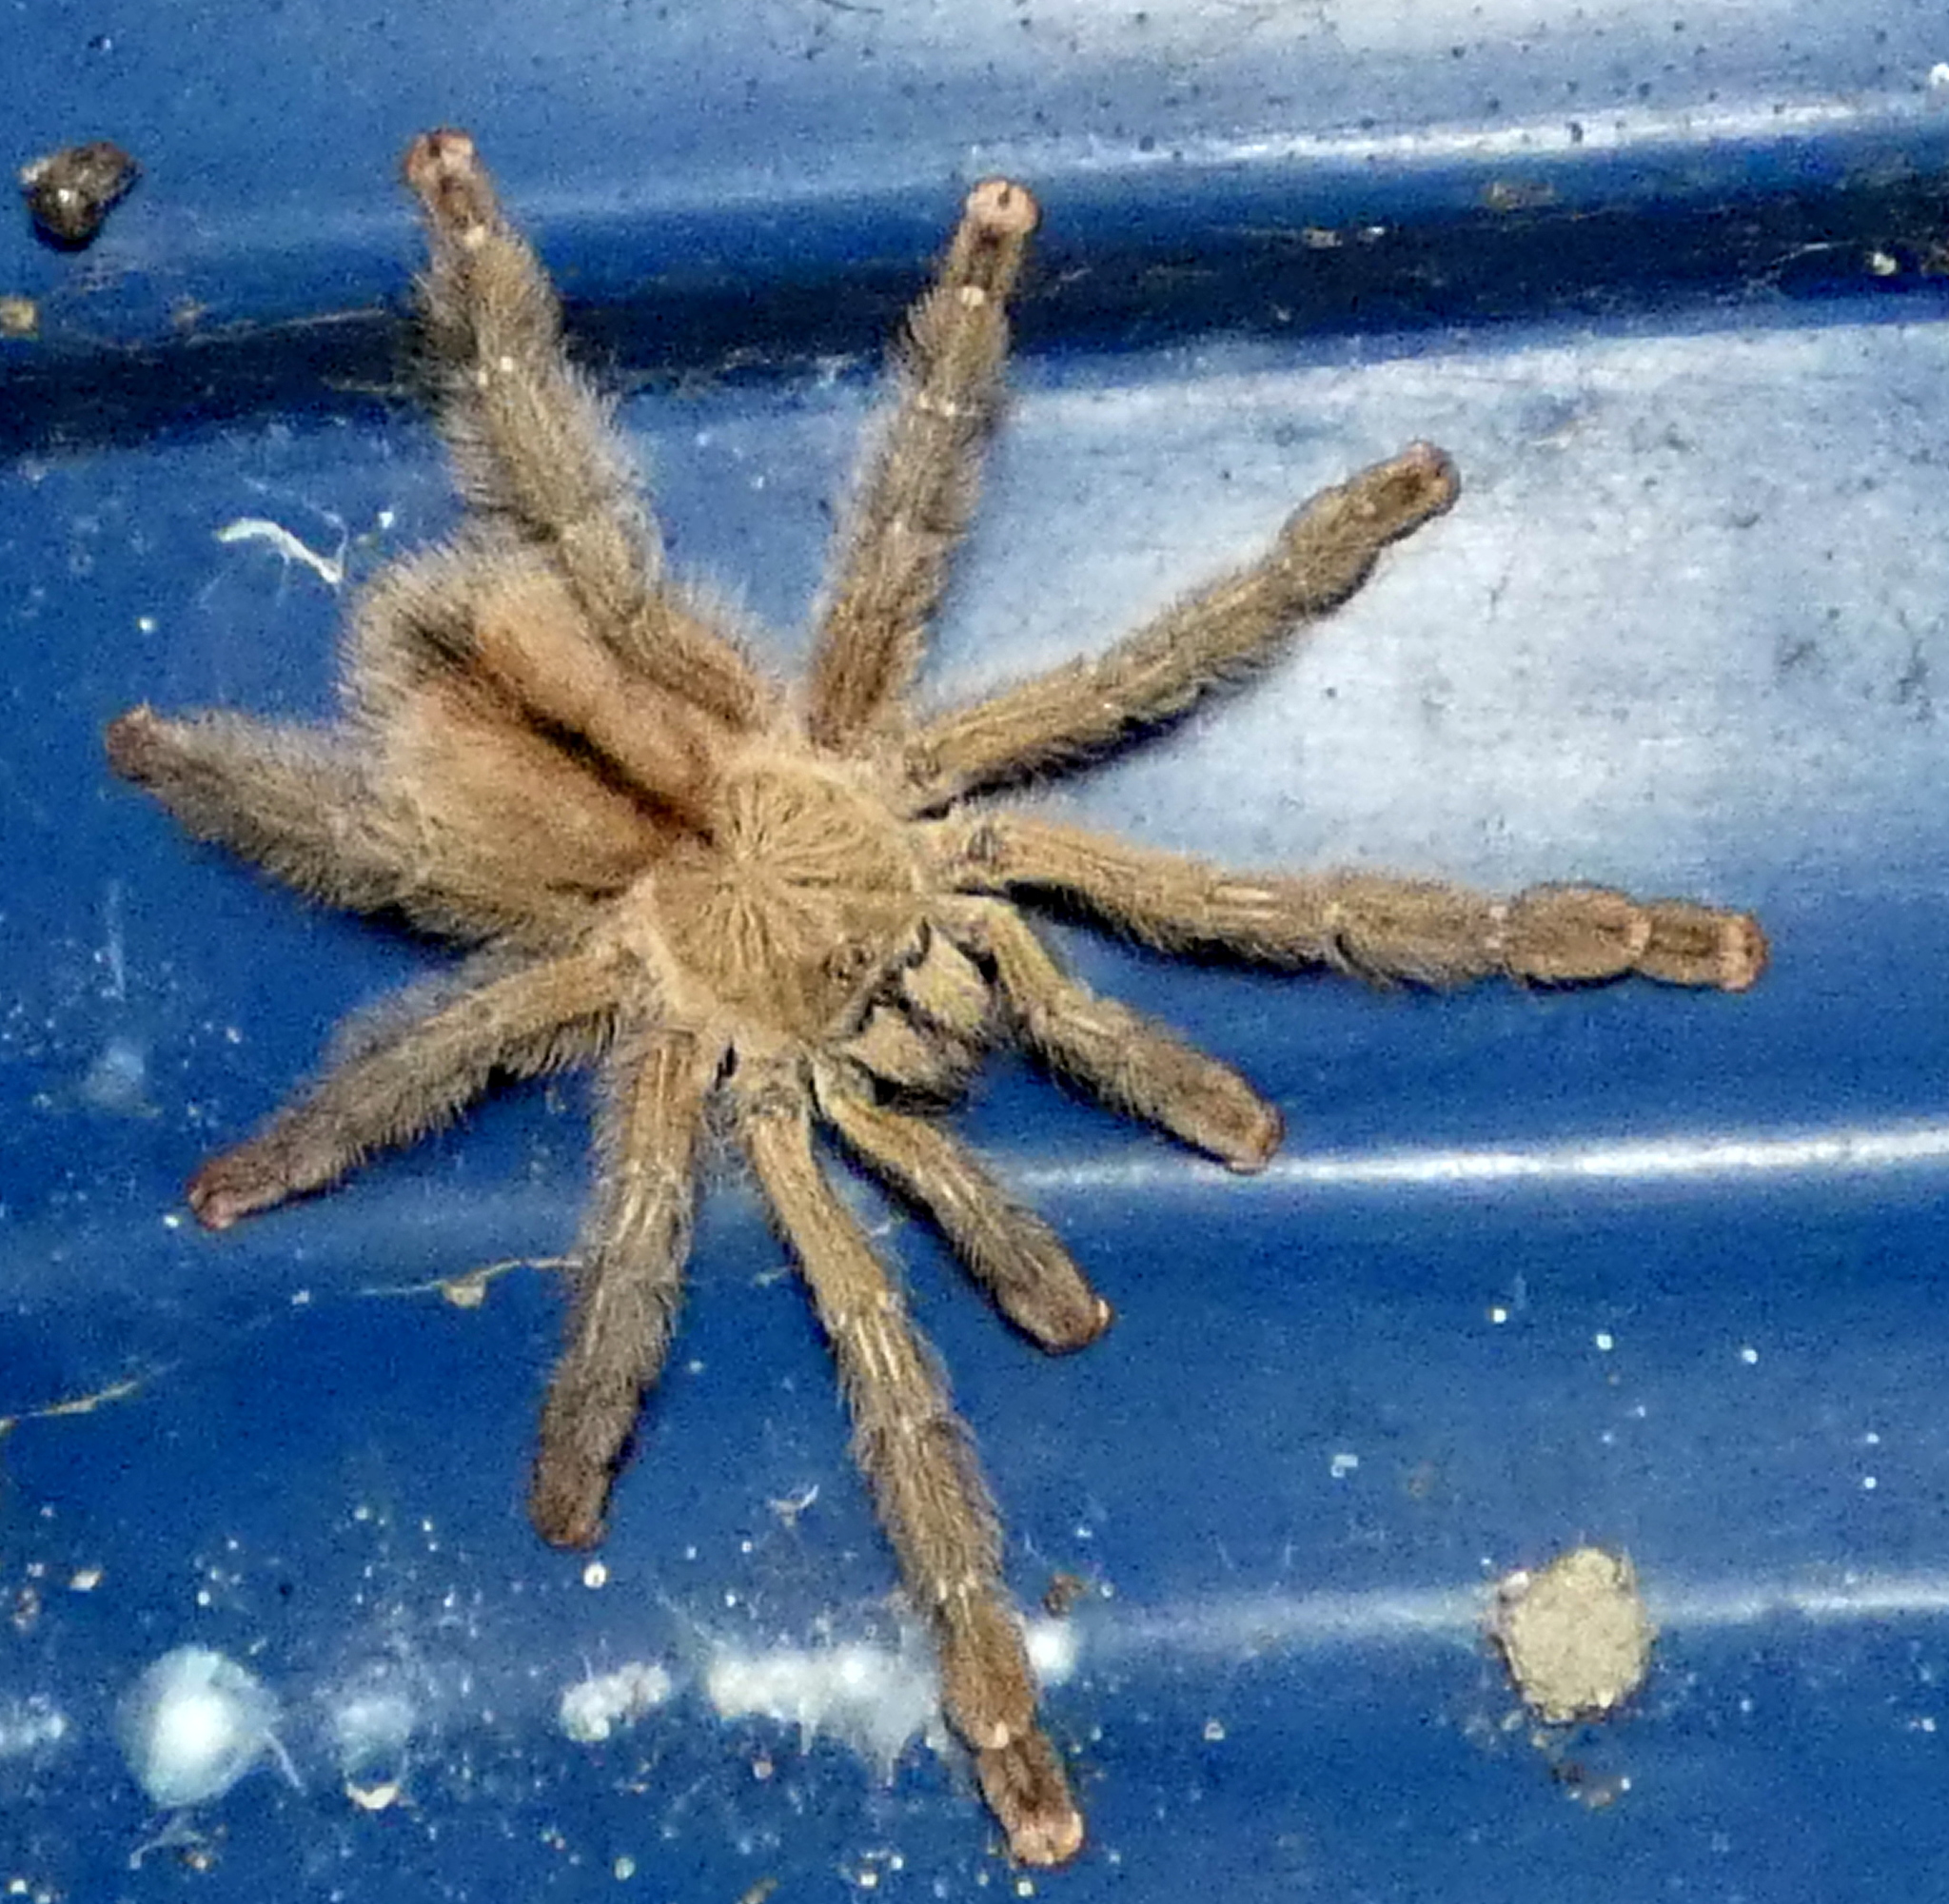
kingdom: Animalia
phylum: Arthropoda
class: Arachnida
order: Araneae
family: Theraphosidae
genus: Iridopelma
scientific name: Iridopelma hirsutum
